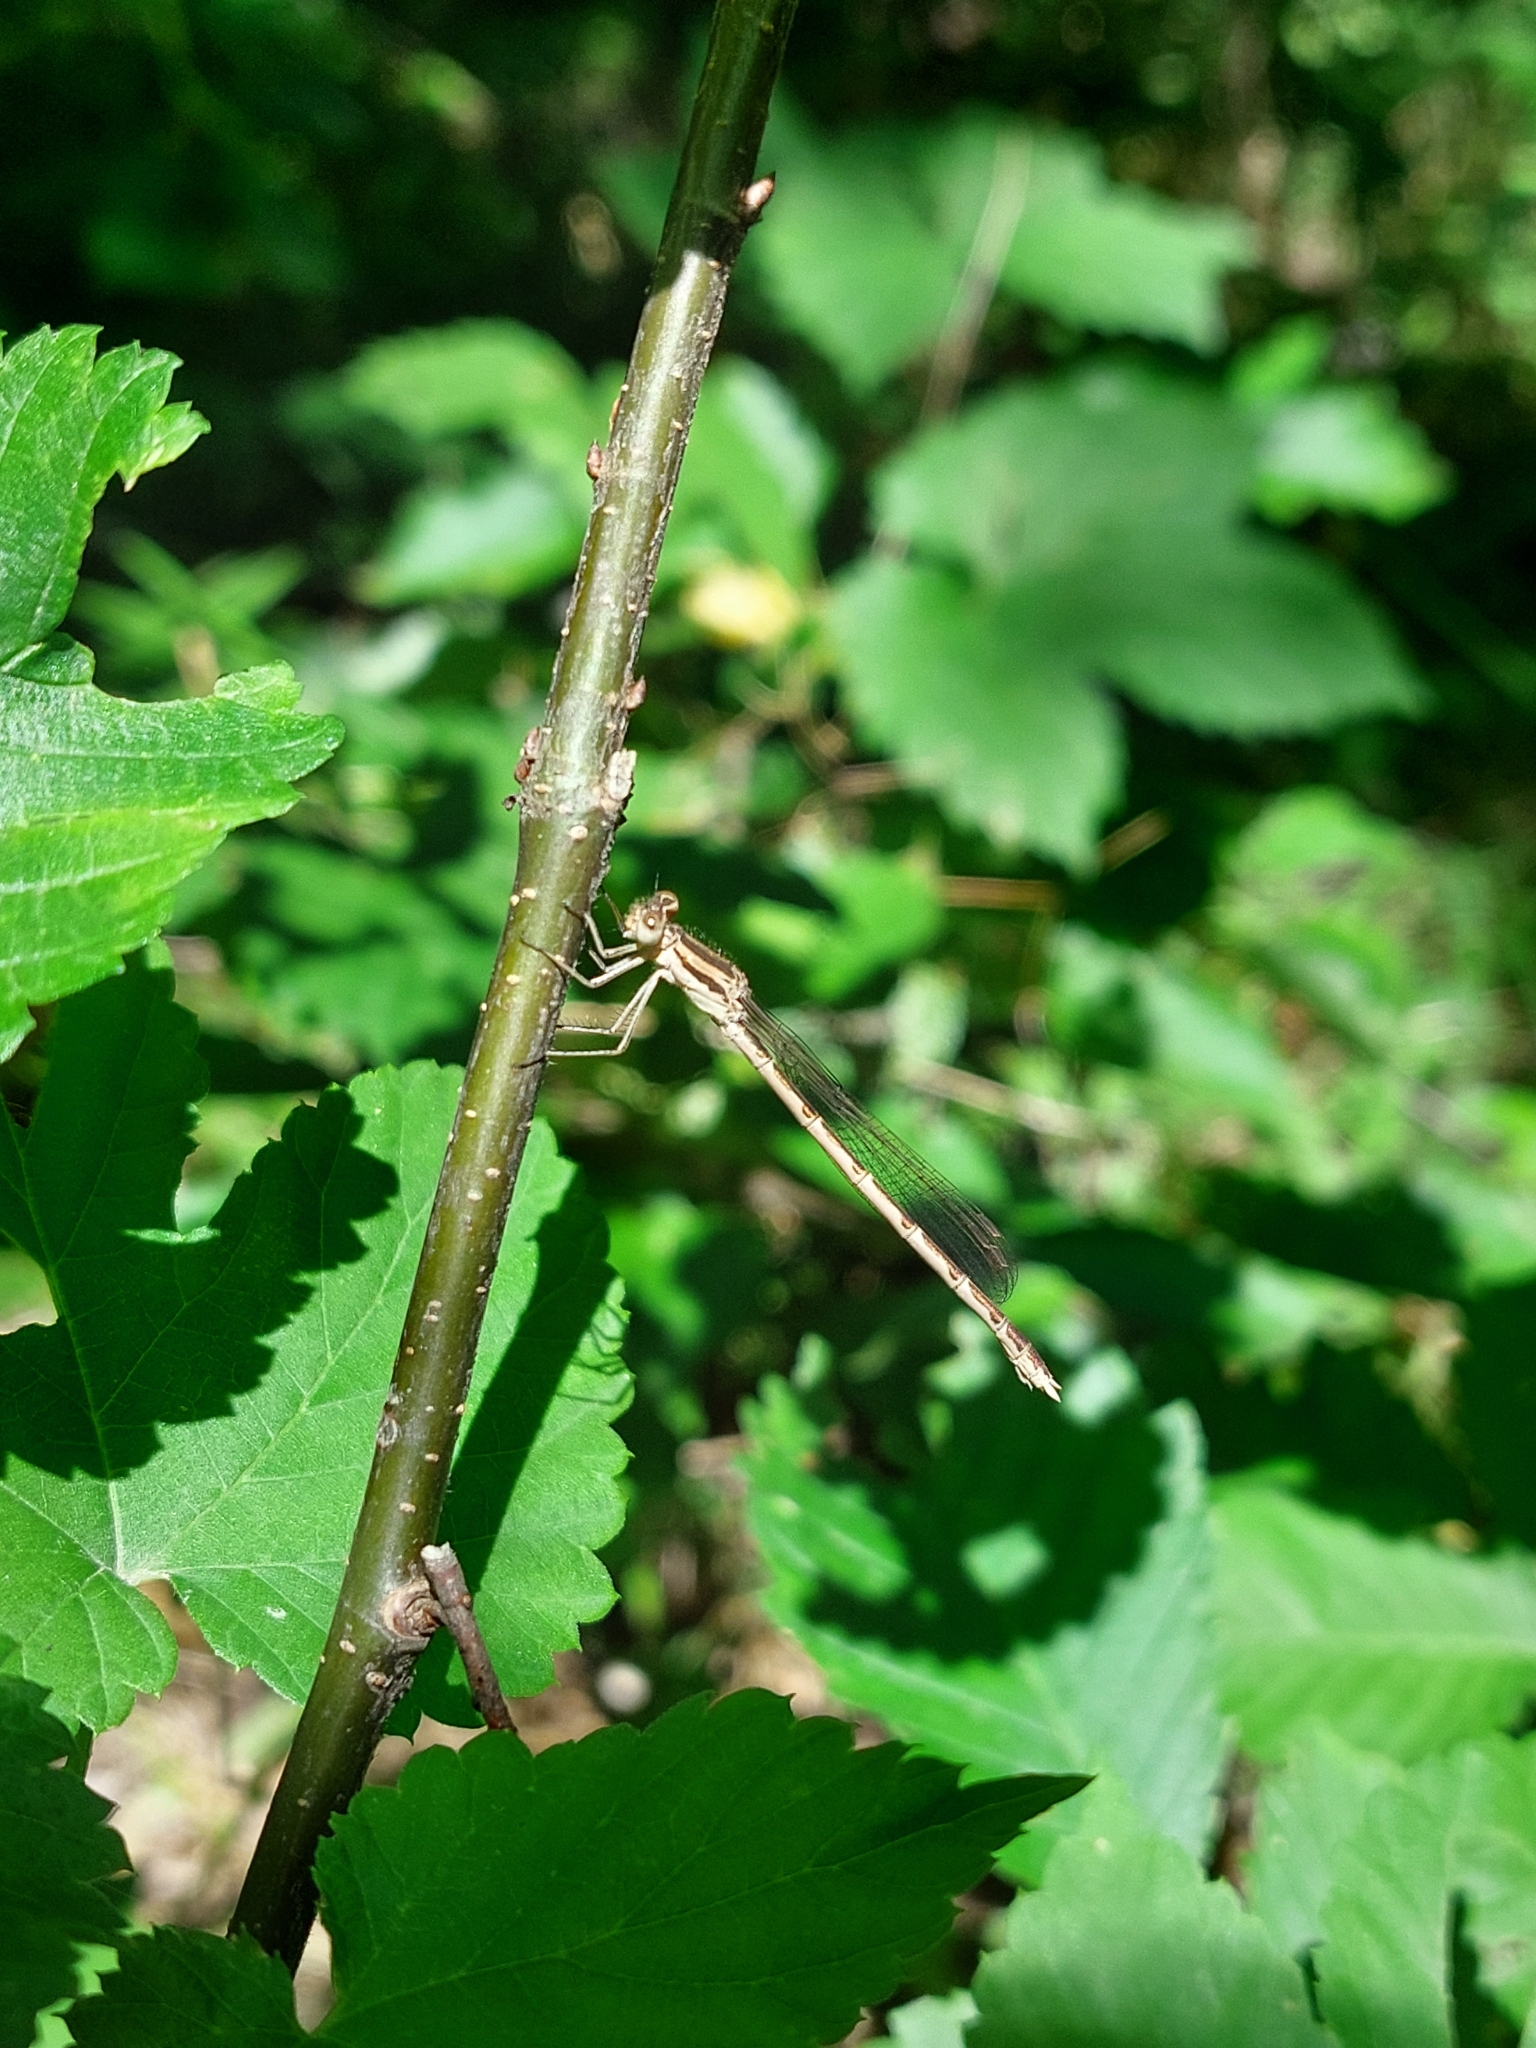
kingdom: Animalia
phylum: Arthropoda
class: Insecta
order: Odonata
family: Lestidae
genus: Sympecma
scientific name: Sympecma fusca
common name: Common winter damsel
